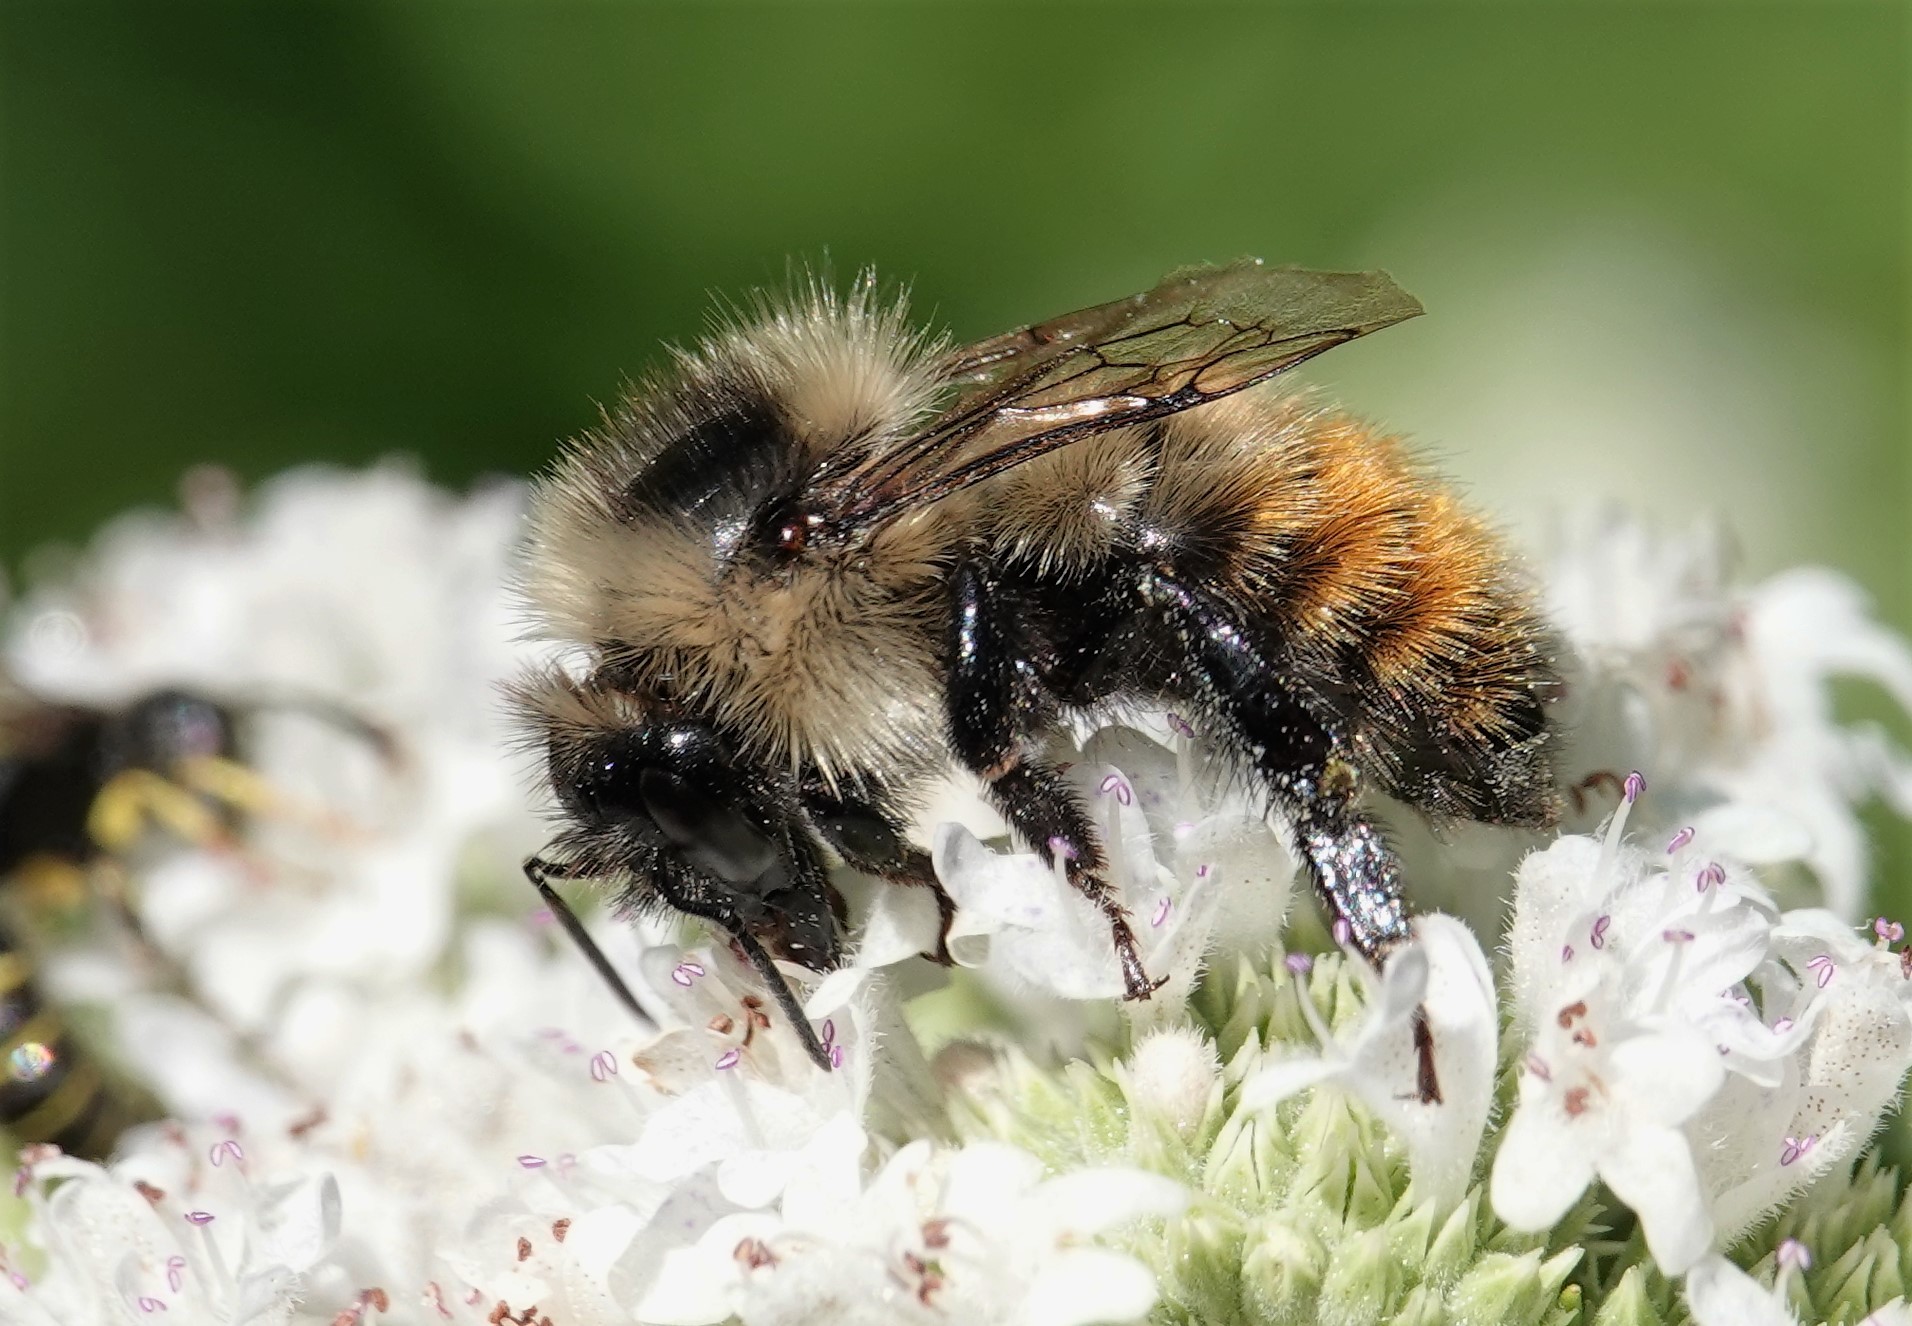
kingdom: Animalia
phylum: Arthropoda
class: Insecta
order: Hymenoptera
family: Apidae
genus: Bombus
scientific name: Bombus rufocinctus
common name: Red-belted bumble bee
